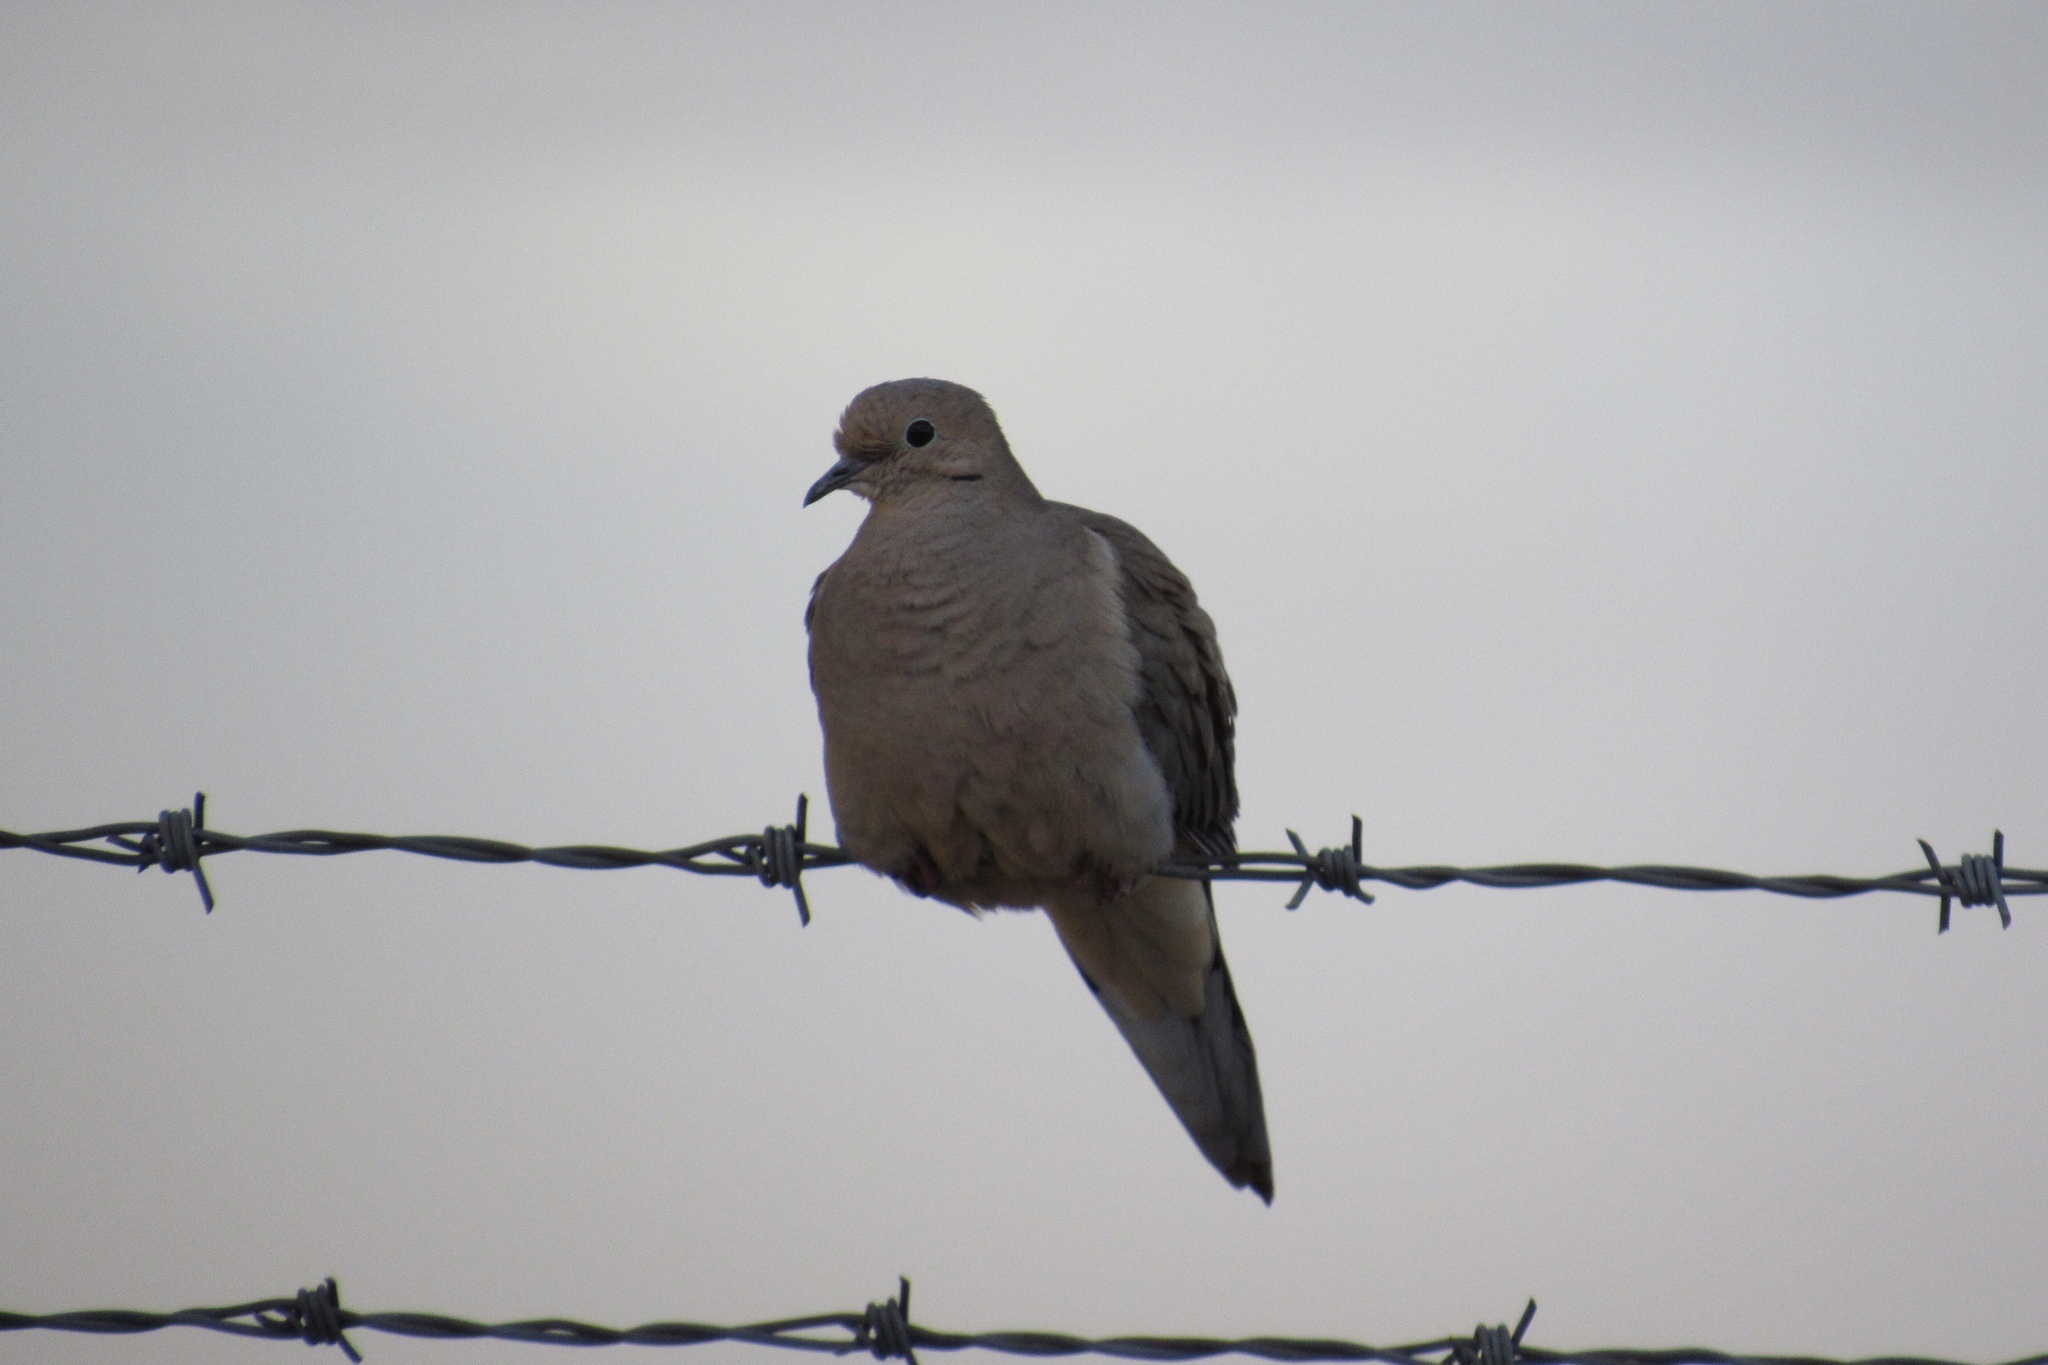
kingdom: Animalia
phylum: Chordata
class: Aves
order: Columbiformes
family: Columbidae
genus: Zenaida
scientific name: Zenaida macroura
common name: Mourning dove
